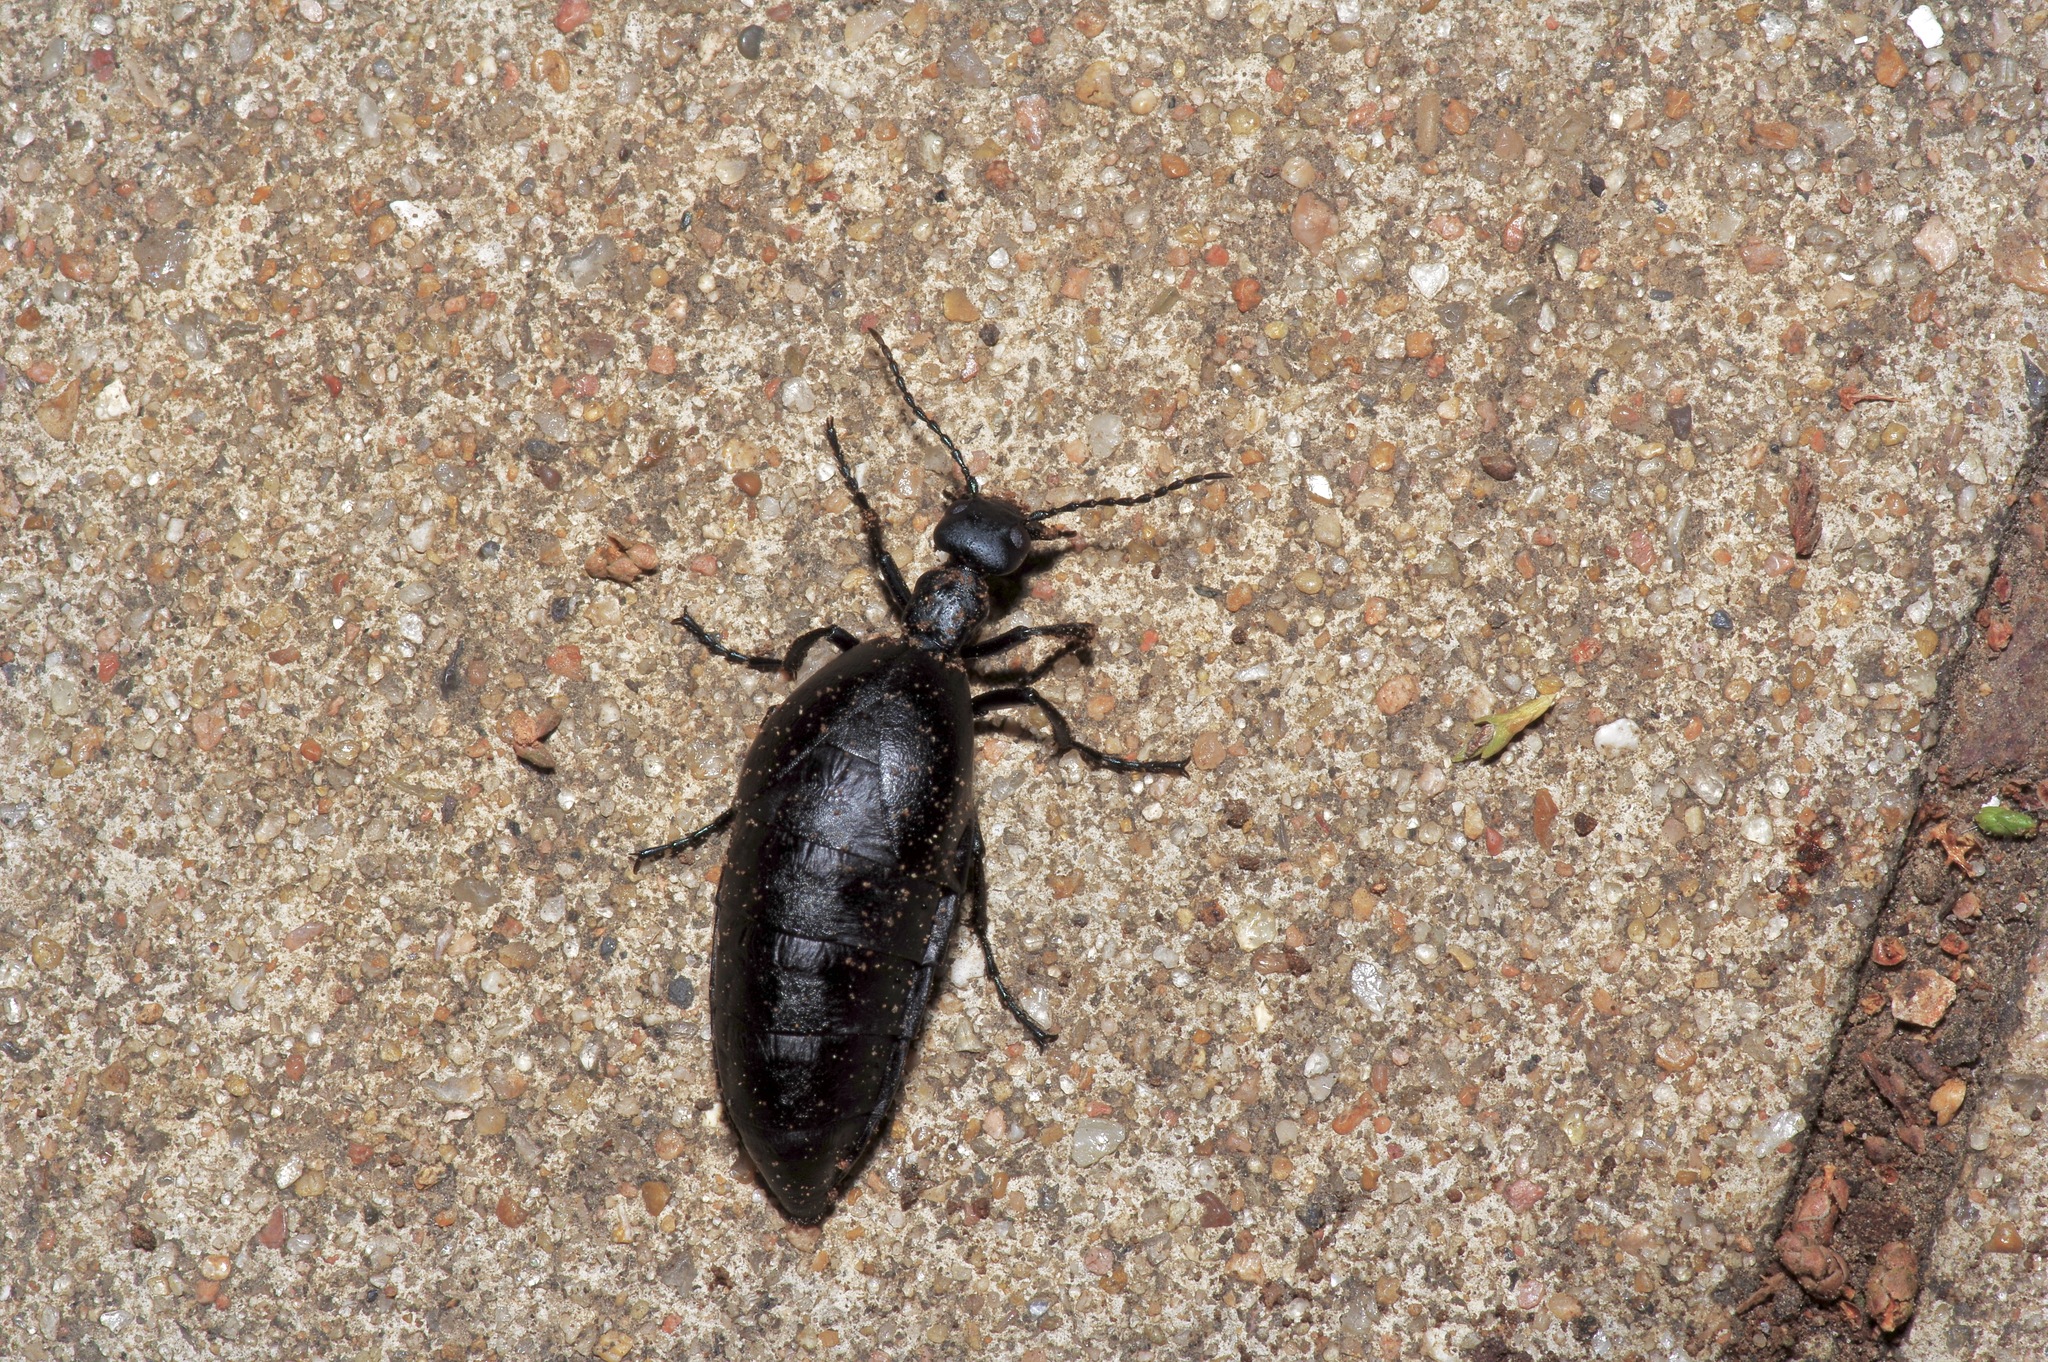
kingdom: Animalia
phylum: Arthropoda
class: Insecta
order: Coleoptera
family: Meloidae
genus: Meloe
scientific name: Meloe americanus
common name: Buttercup oil beetle
